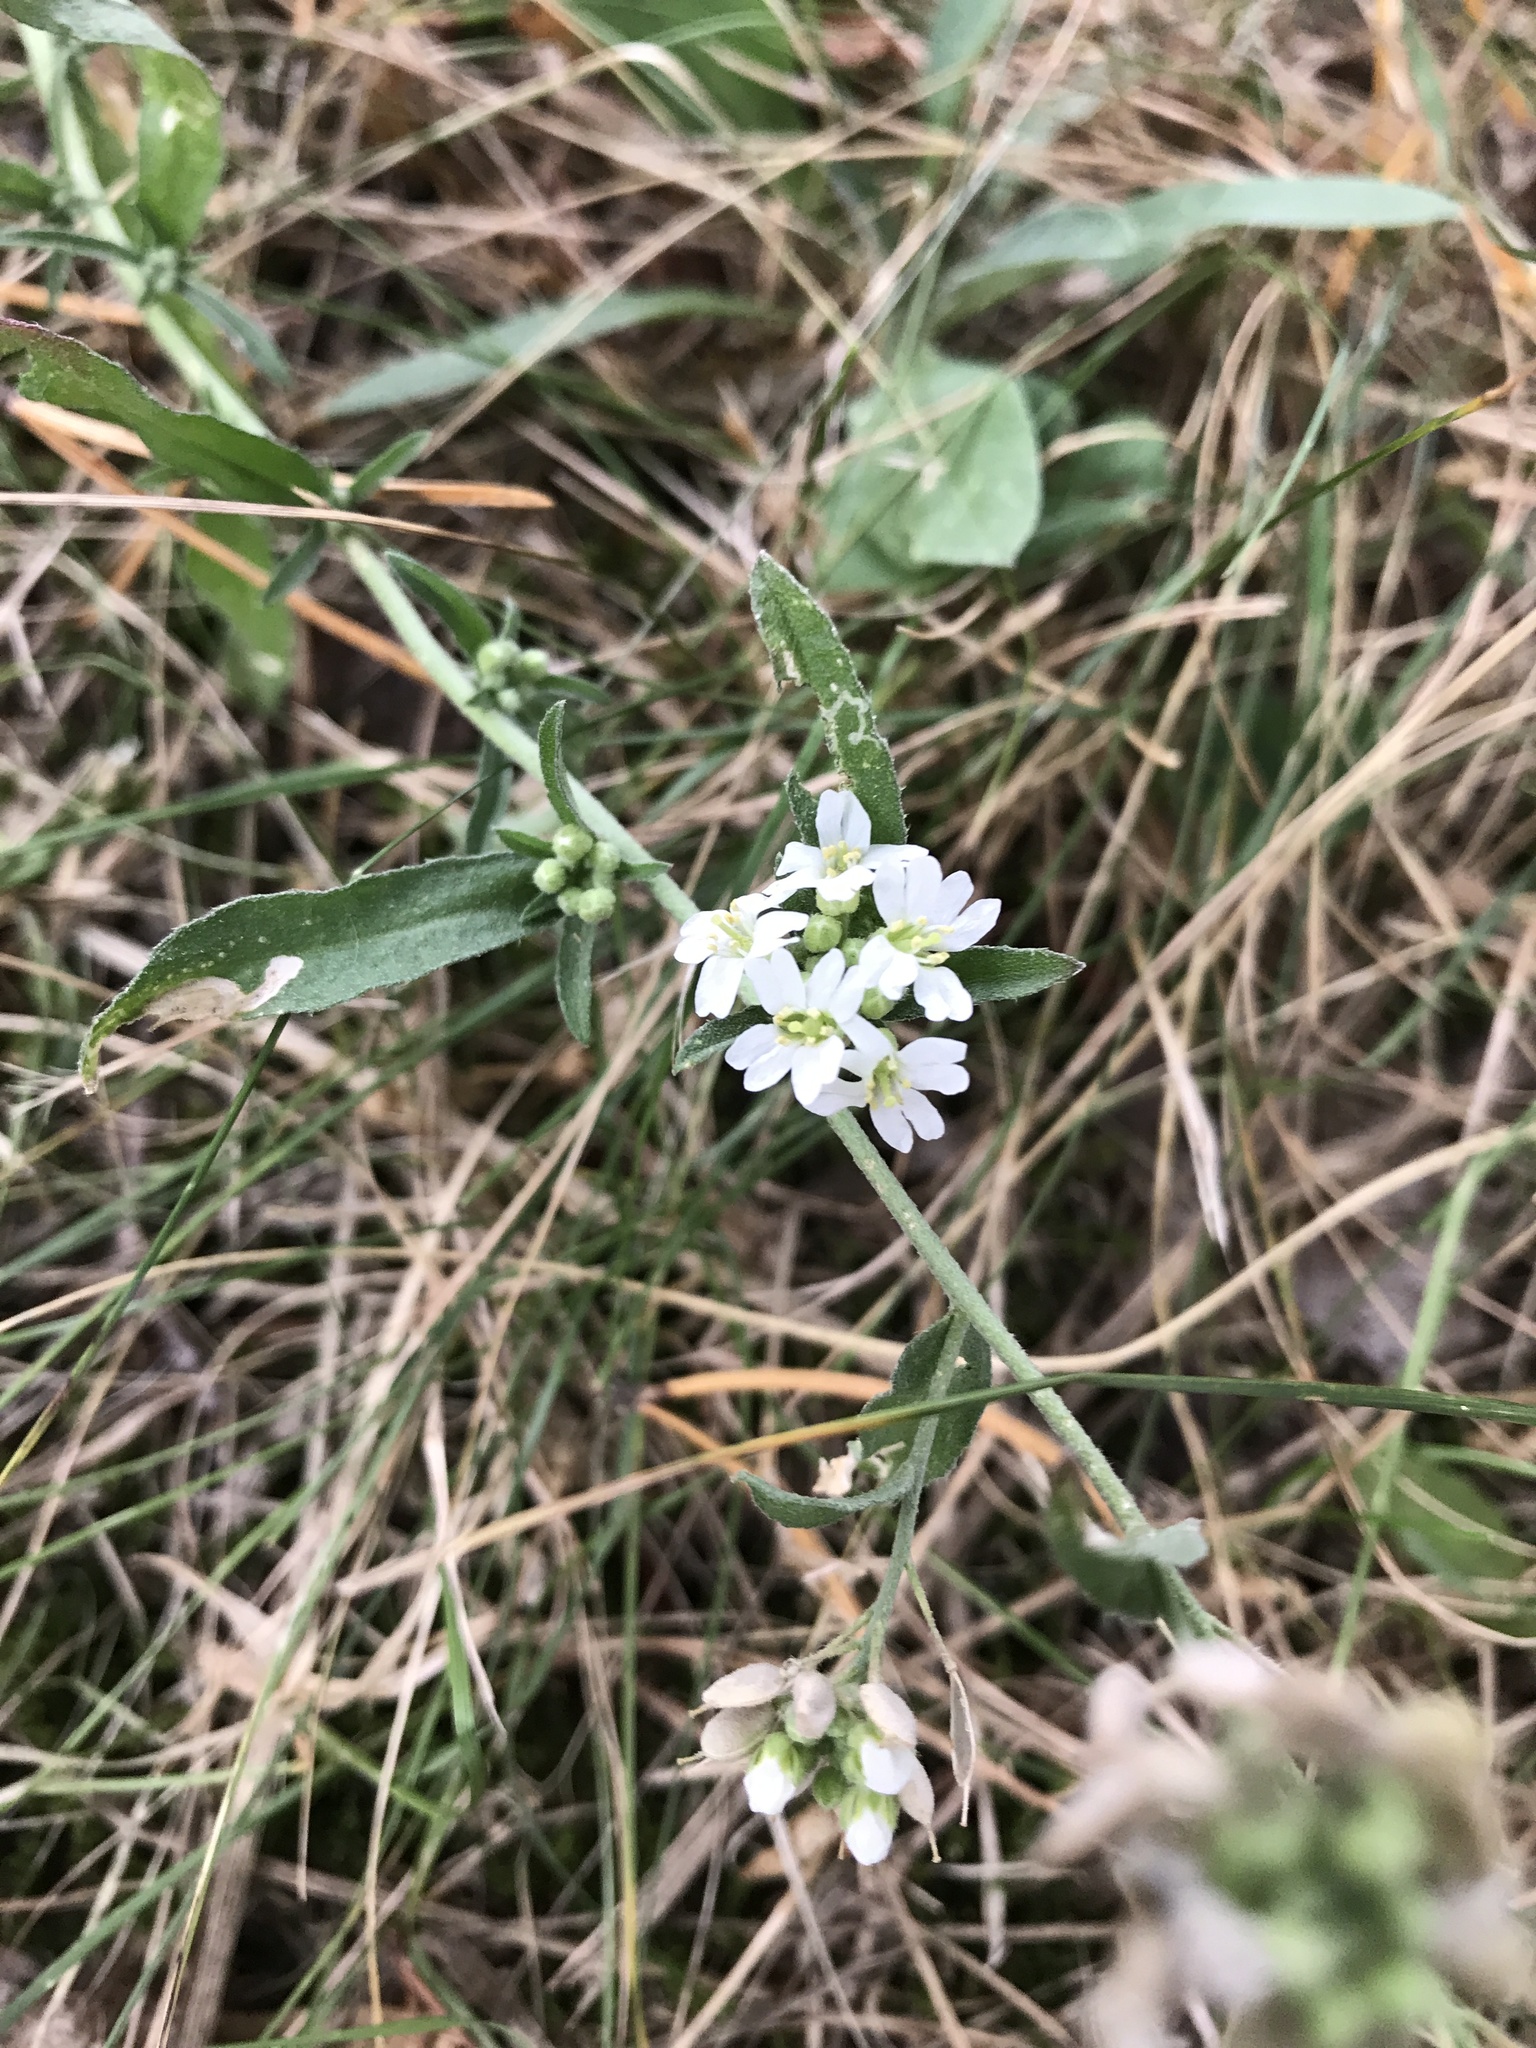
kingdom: Plantae
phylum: Tracheophyta
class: Magnoliopsida
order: Brassicales
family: Brassicaceae
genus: Berteroa
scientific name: Berteroa incana
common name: Hoary alison
